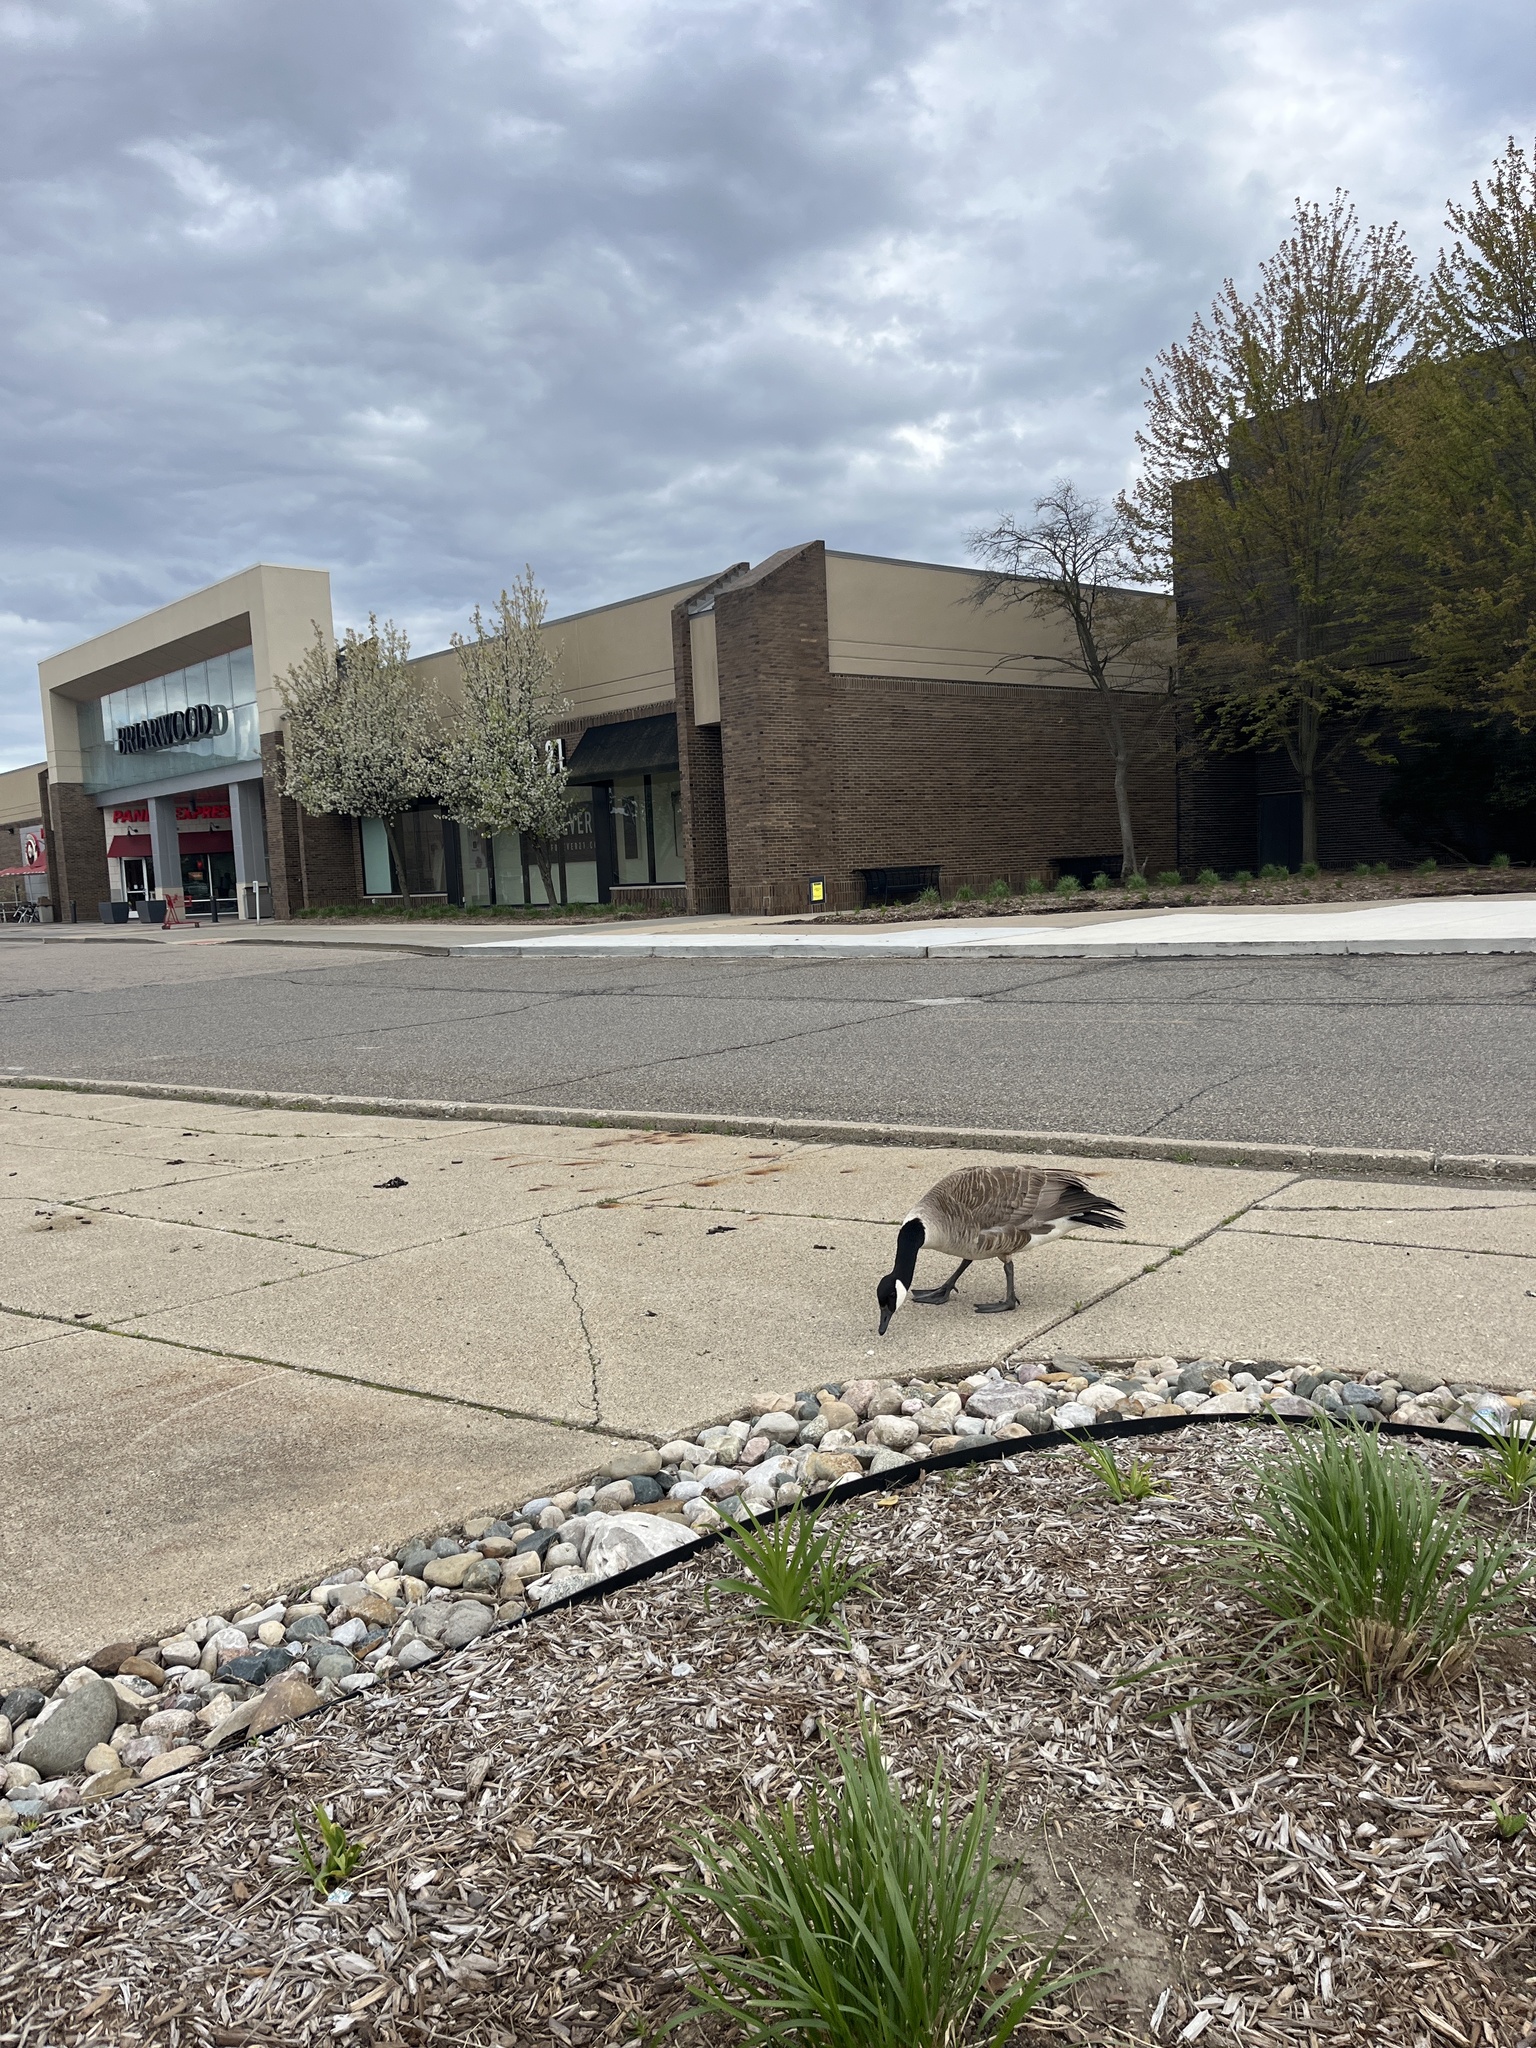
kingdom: Animalia
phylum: Chordata
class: Aves
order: Anseriformes
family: Anatidae
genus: Branta
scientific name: Branta canadensis
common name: Canada goose
